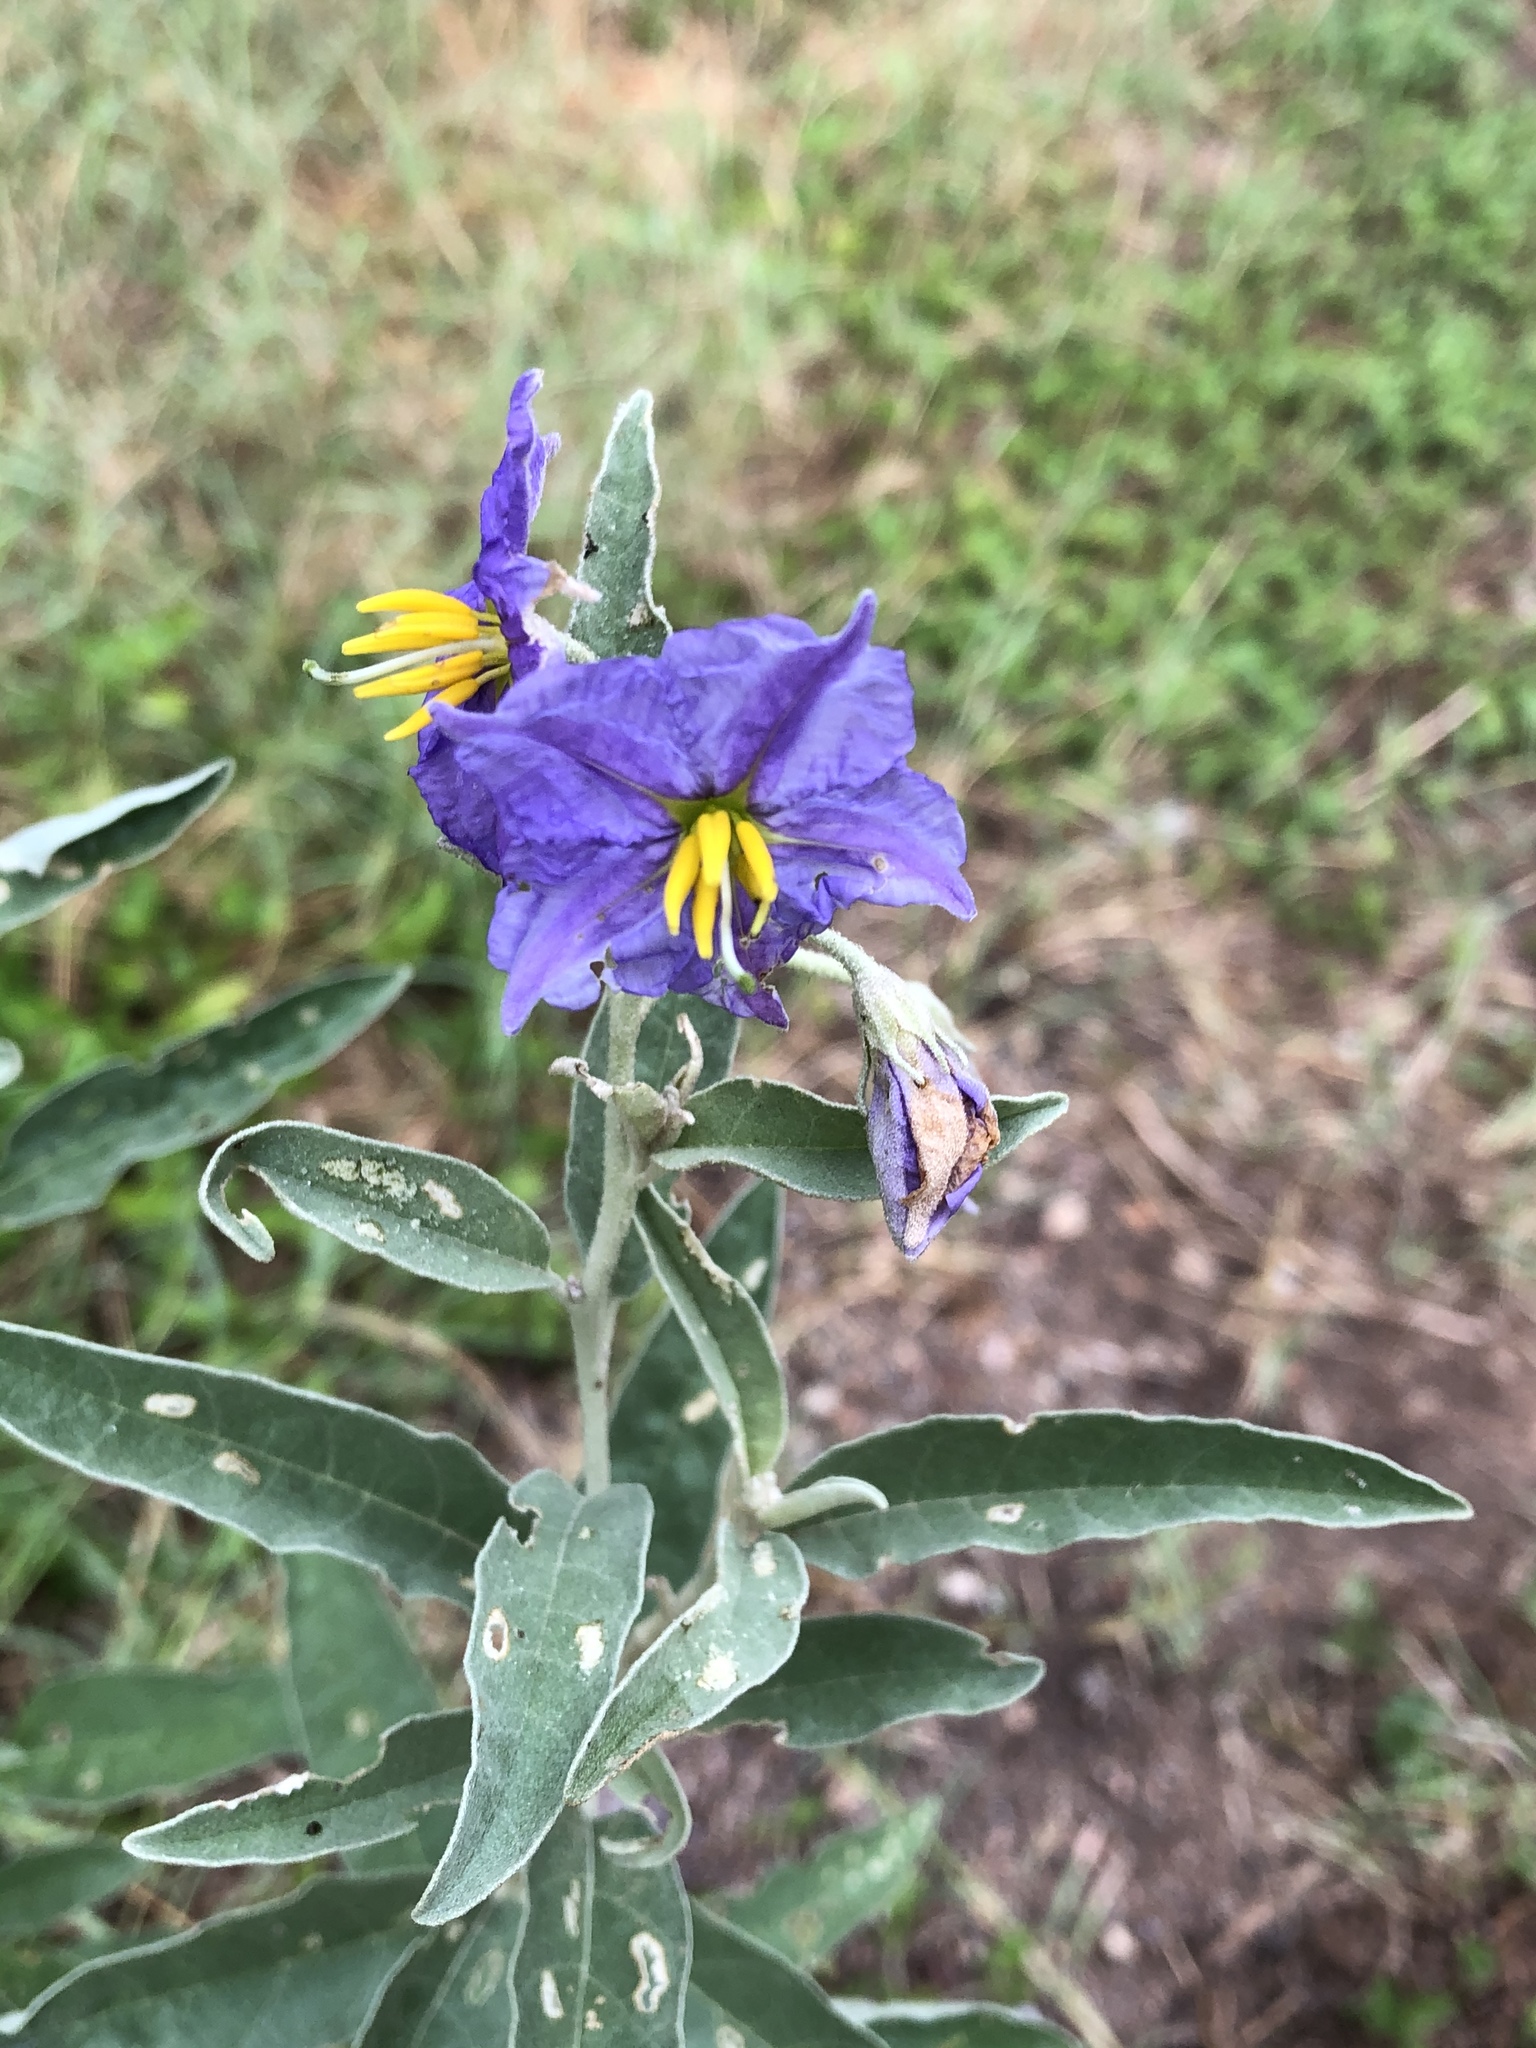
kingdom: Plantae
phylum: Tracheophyta
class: Magnoliopsida
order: Solanales
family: Solanaceae
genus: Solanum
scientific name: Solanum elaeagnifolium
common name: Silverleaf nightshade
